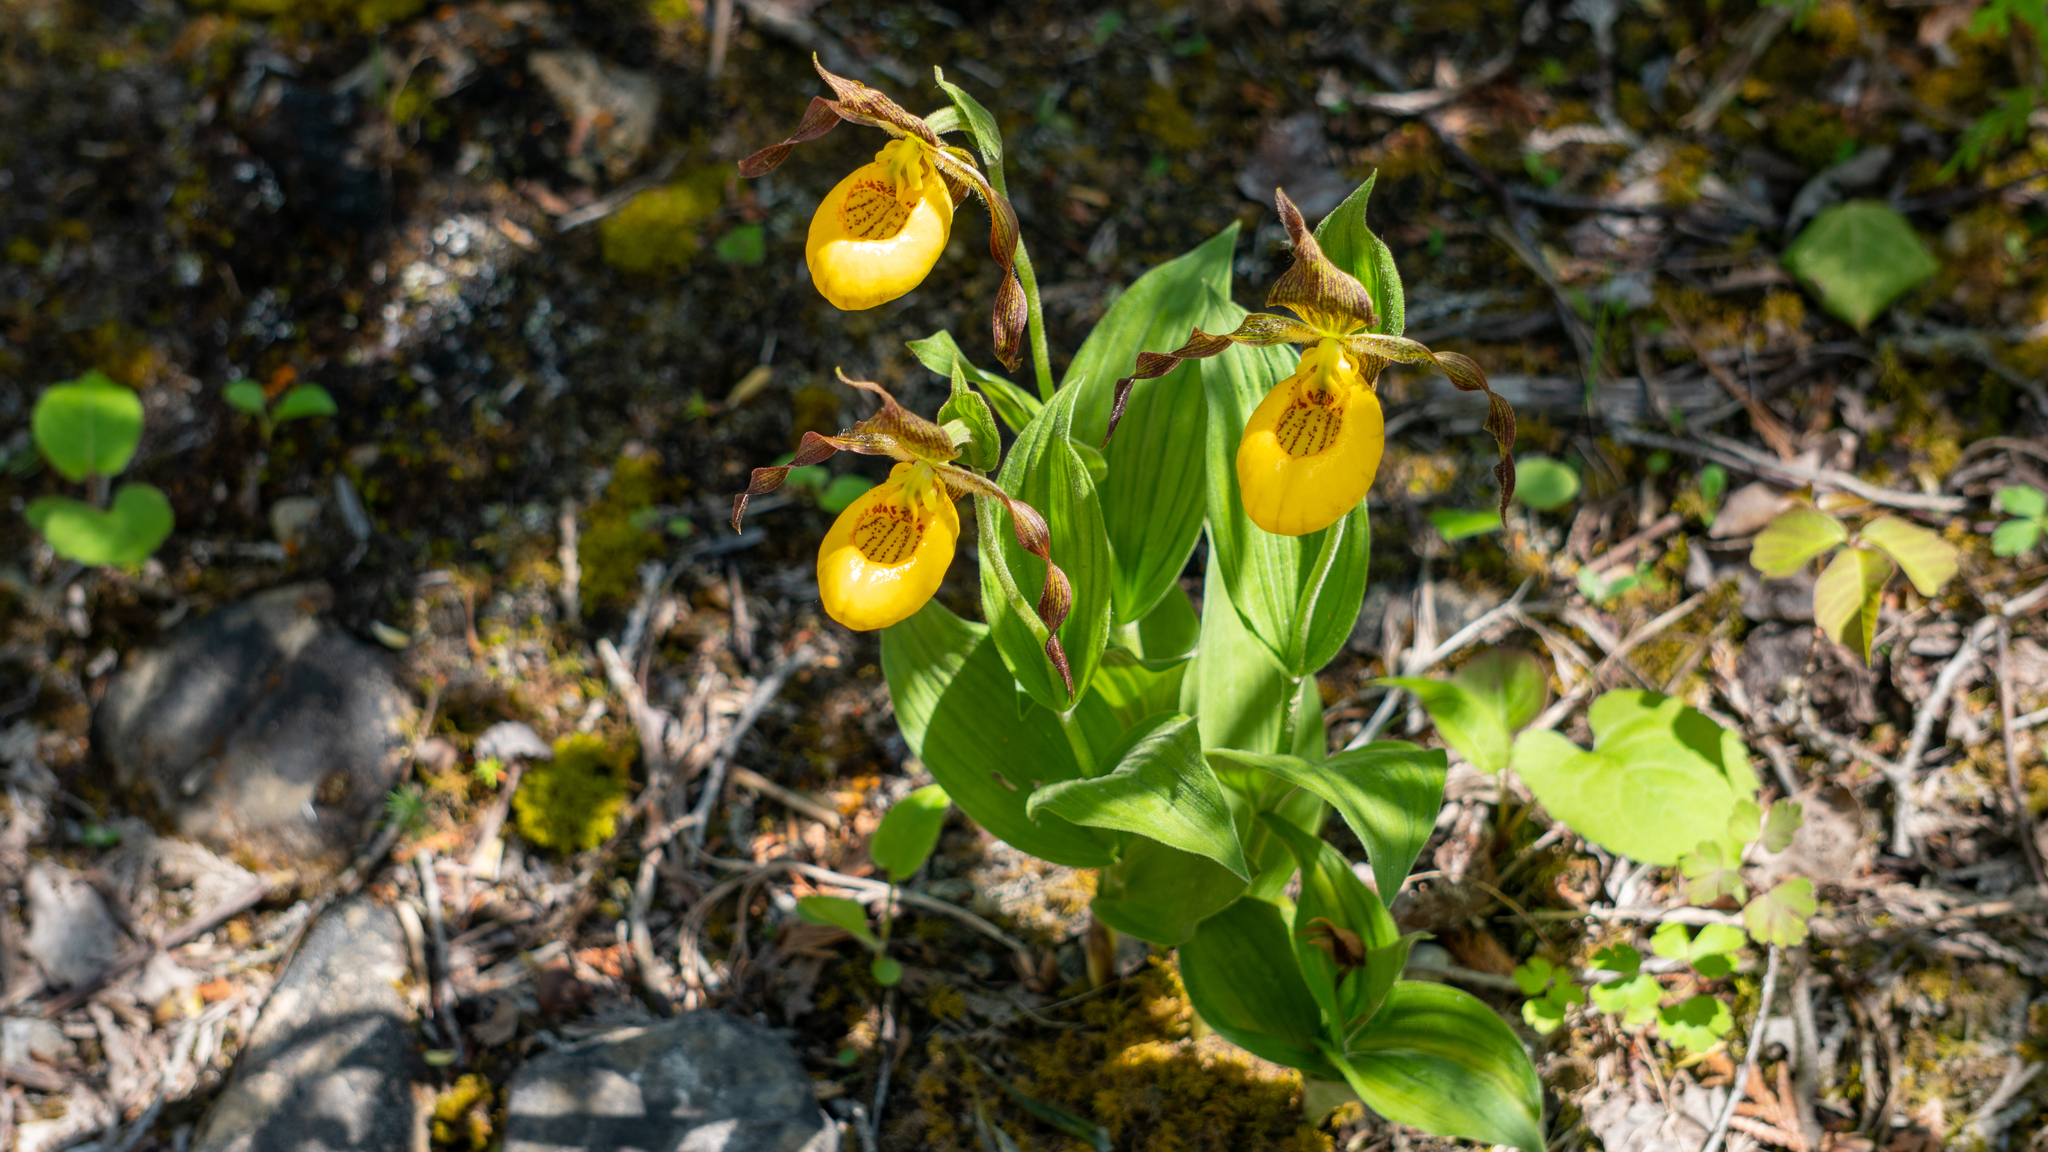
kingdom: Plantae
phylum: Tracheophyta
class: Liliopsida
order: Asparagales
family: Orchidaceae
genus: Cypripedium
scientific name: Cypripedium parviflorum
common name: American yellow lady's-slipper
